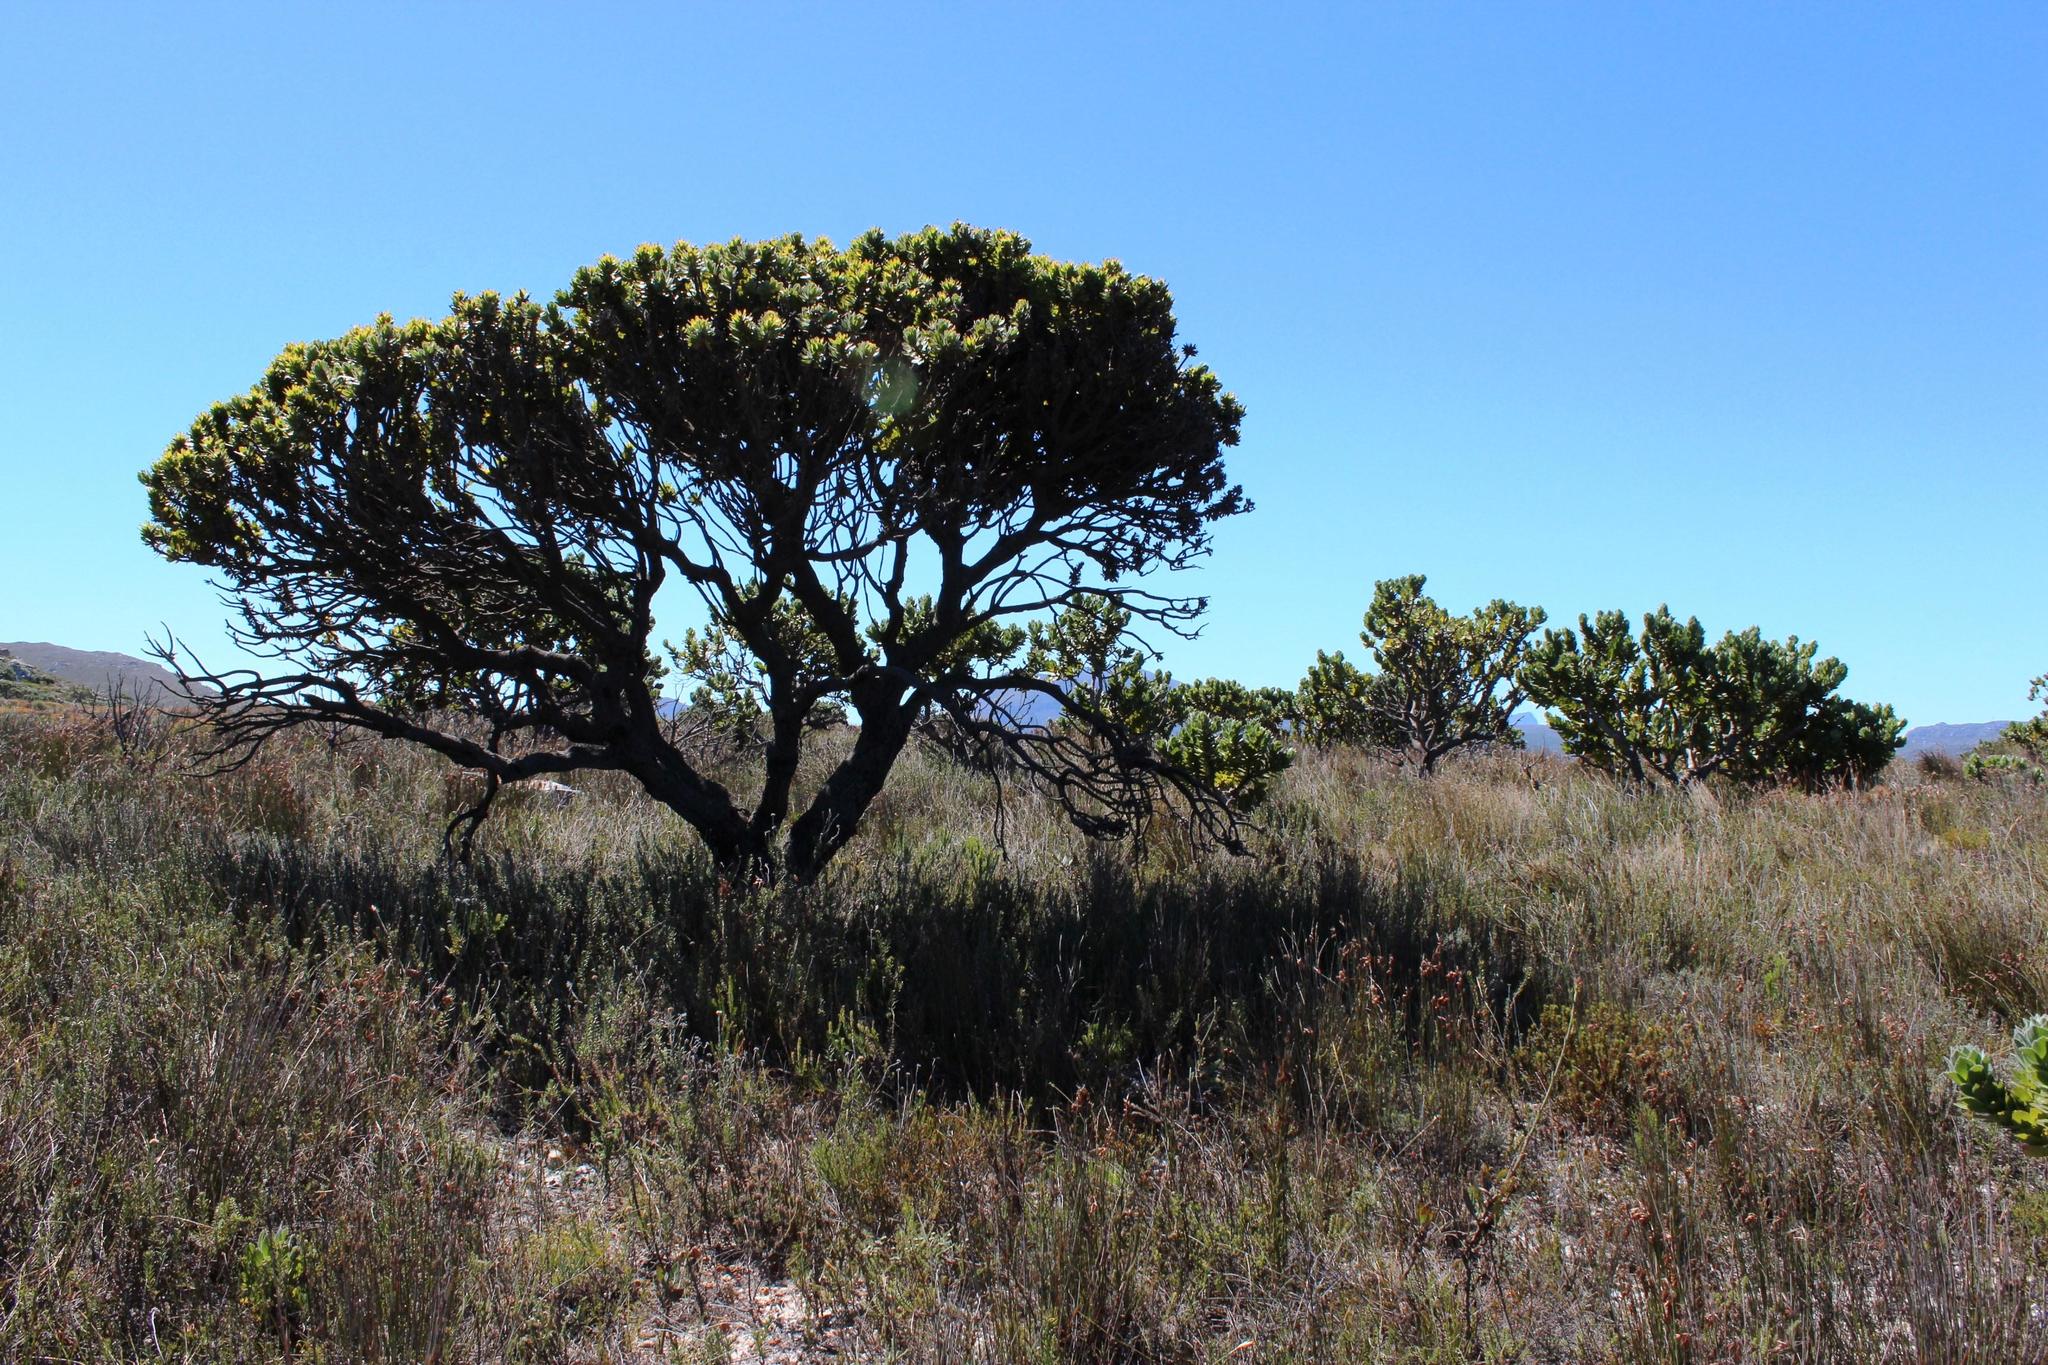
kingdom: Plantae
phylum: Tracheophyta
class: Magnoliopsida
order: Proteales
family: Proteaceae
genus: Leucospermum
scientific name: Leucospermum conocarpodendron
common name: Tree pincushion
